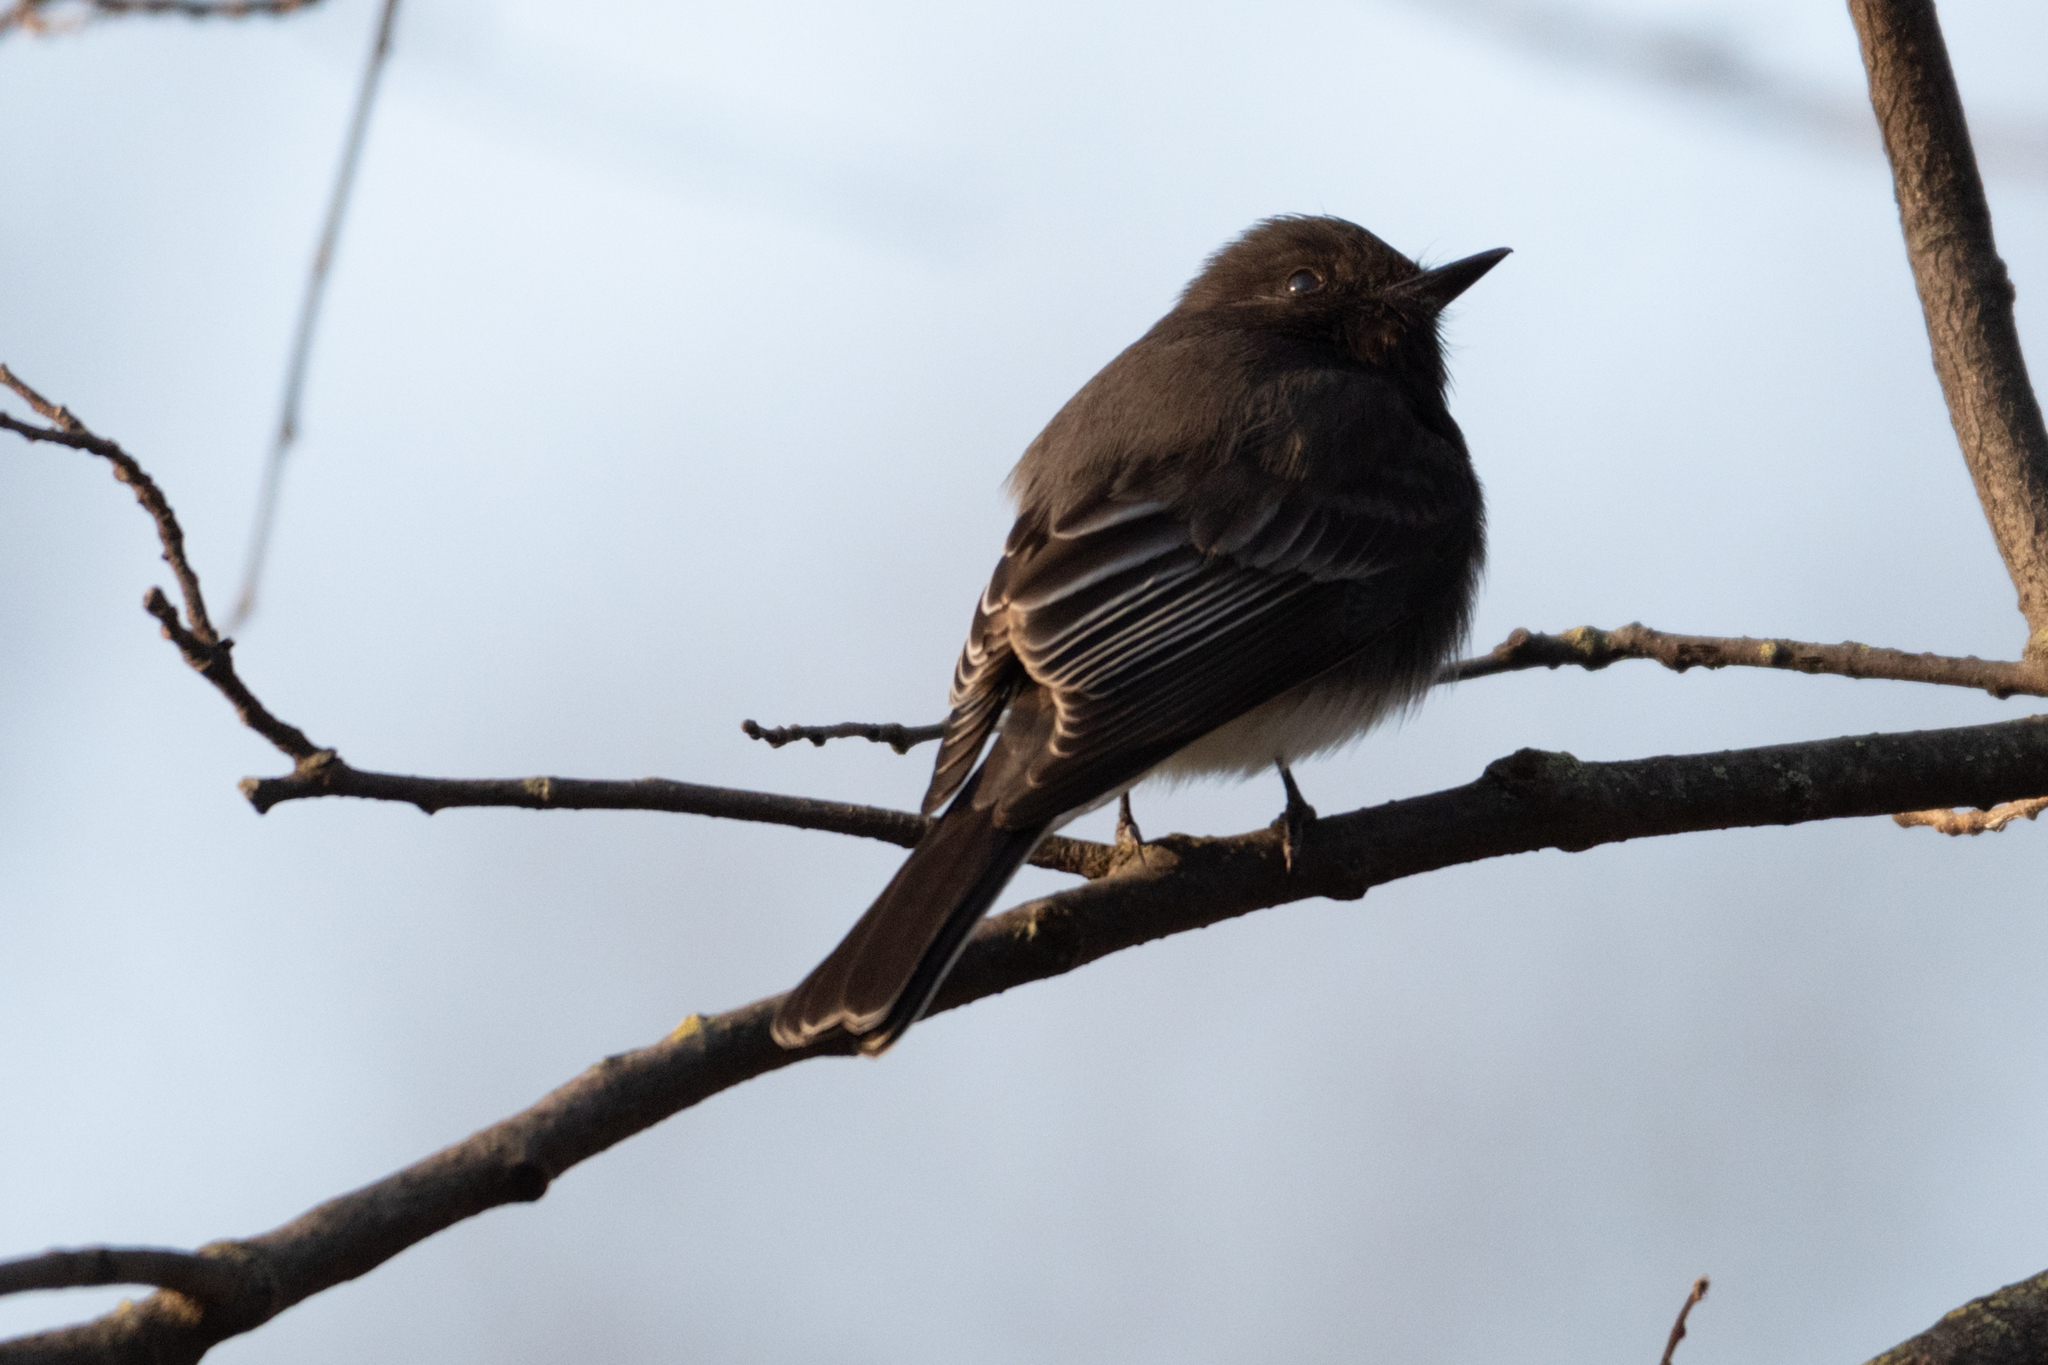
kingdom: Animalia
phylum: Chordata
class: Aves
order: Passeriformes
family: Tyrannidae
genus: Sayornis
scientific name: Sayornis nigricans
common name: Black phoebe
